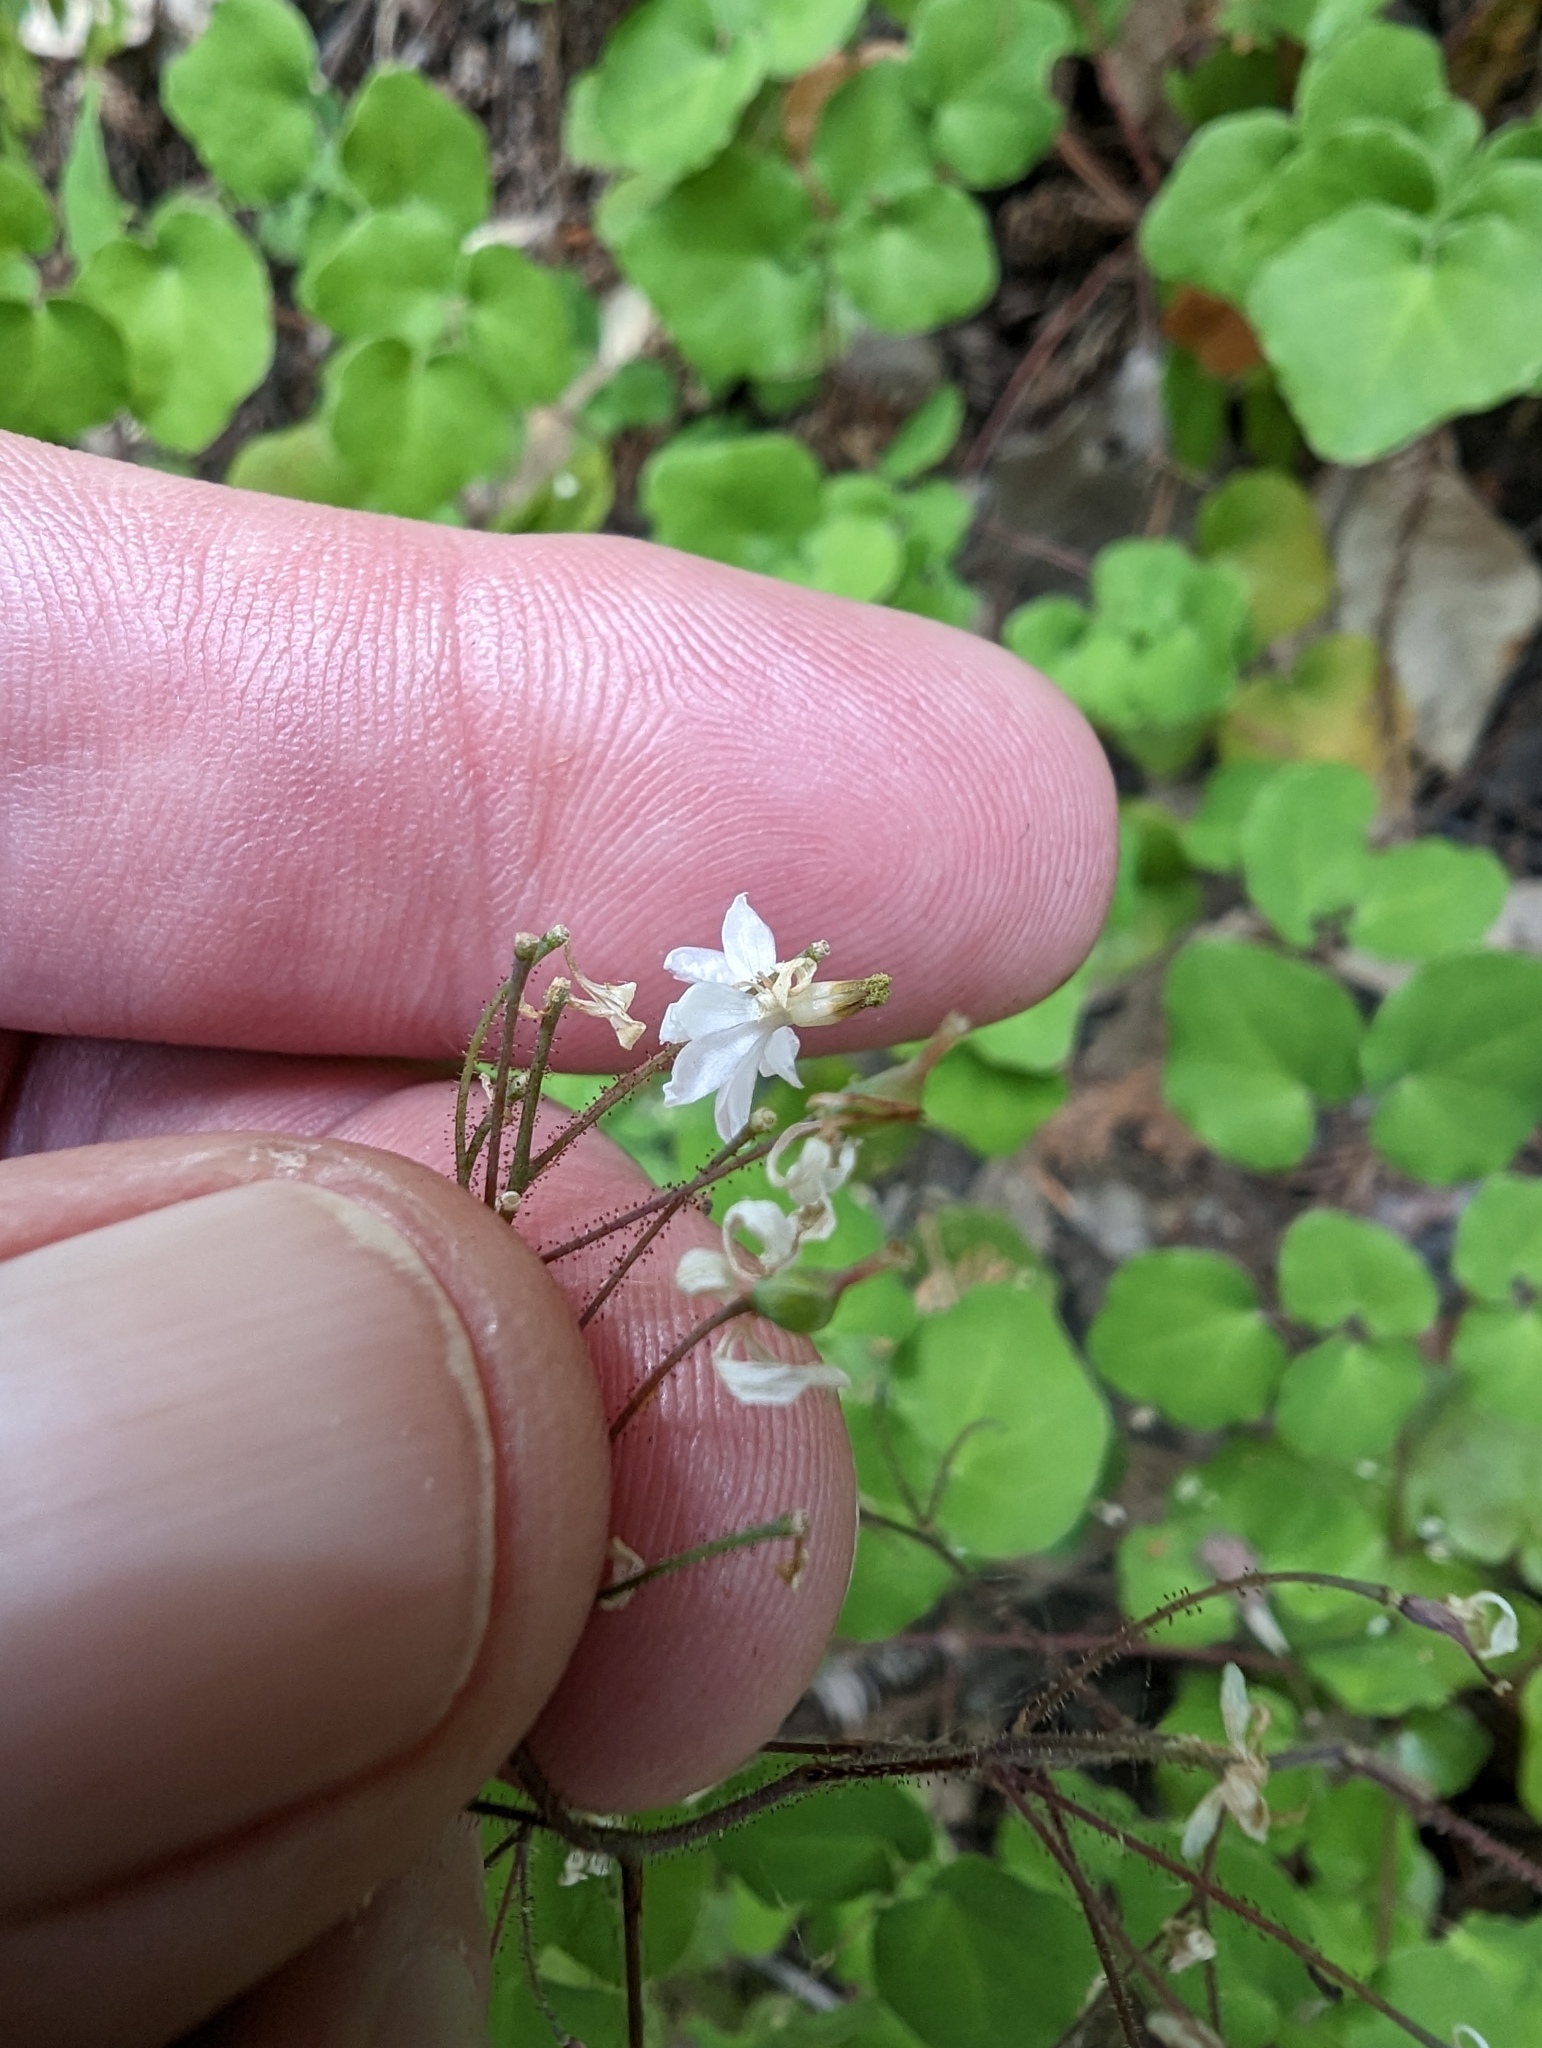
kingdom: Plantae
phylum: Tracheophyta
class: Magnoliopsida
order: Ranunculales
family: Berberidaceae
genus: Vancouveria
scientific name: Vancouveria planipetala
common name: Redwood-ivy
